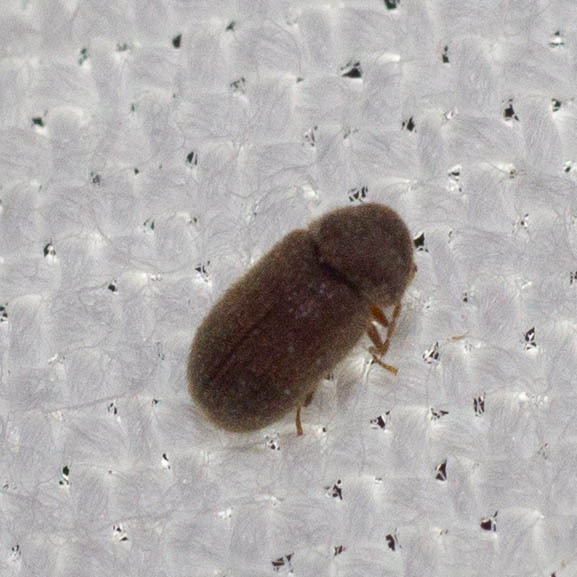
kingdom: Animalia
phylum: Arthropoda
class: Insecta
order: Coleoptera
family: Anobiidae
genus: Stegobium
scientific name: Stegobium paniceum
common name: Drugstore beetle
